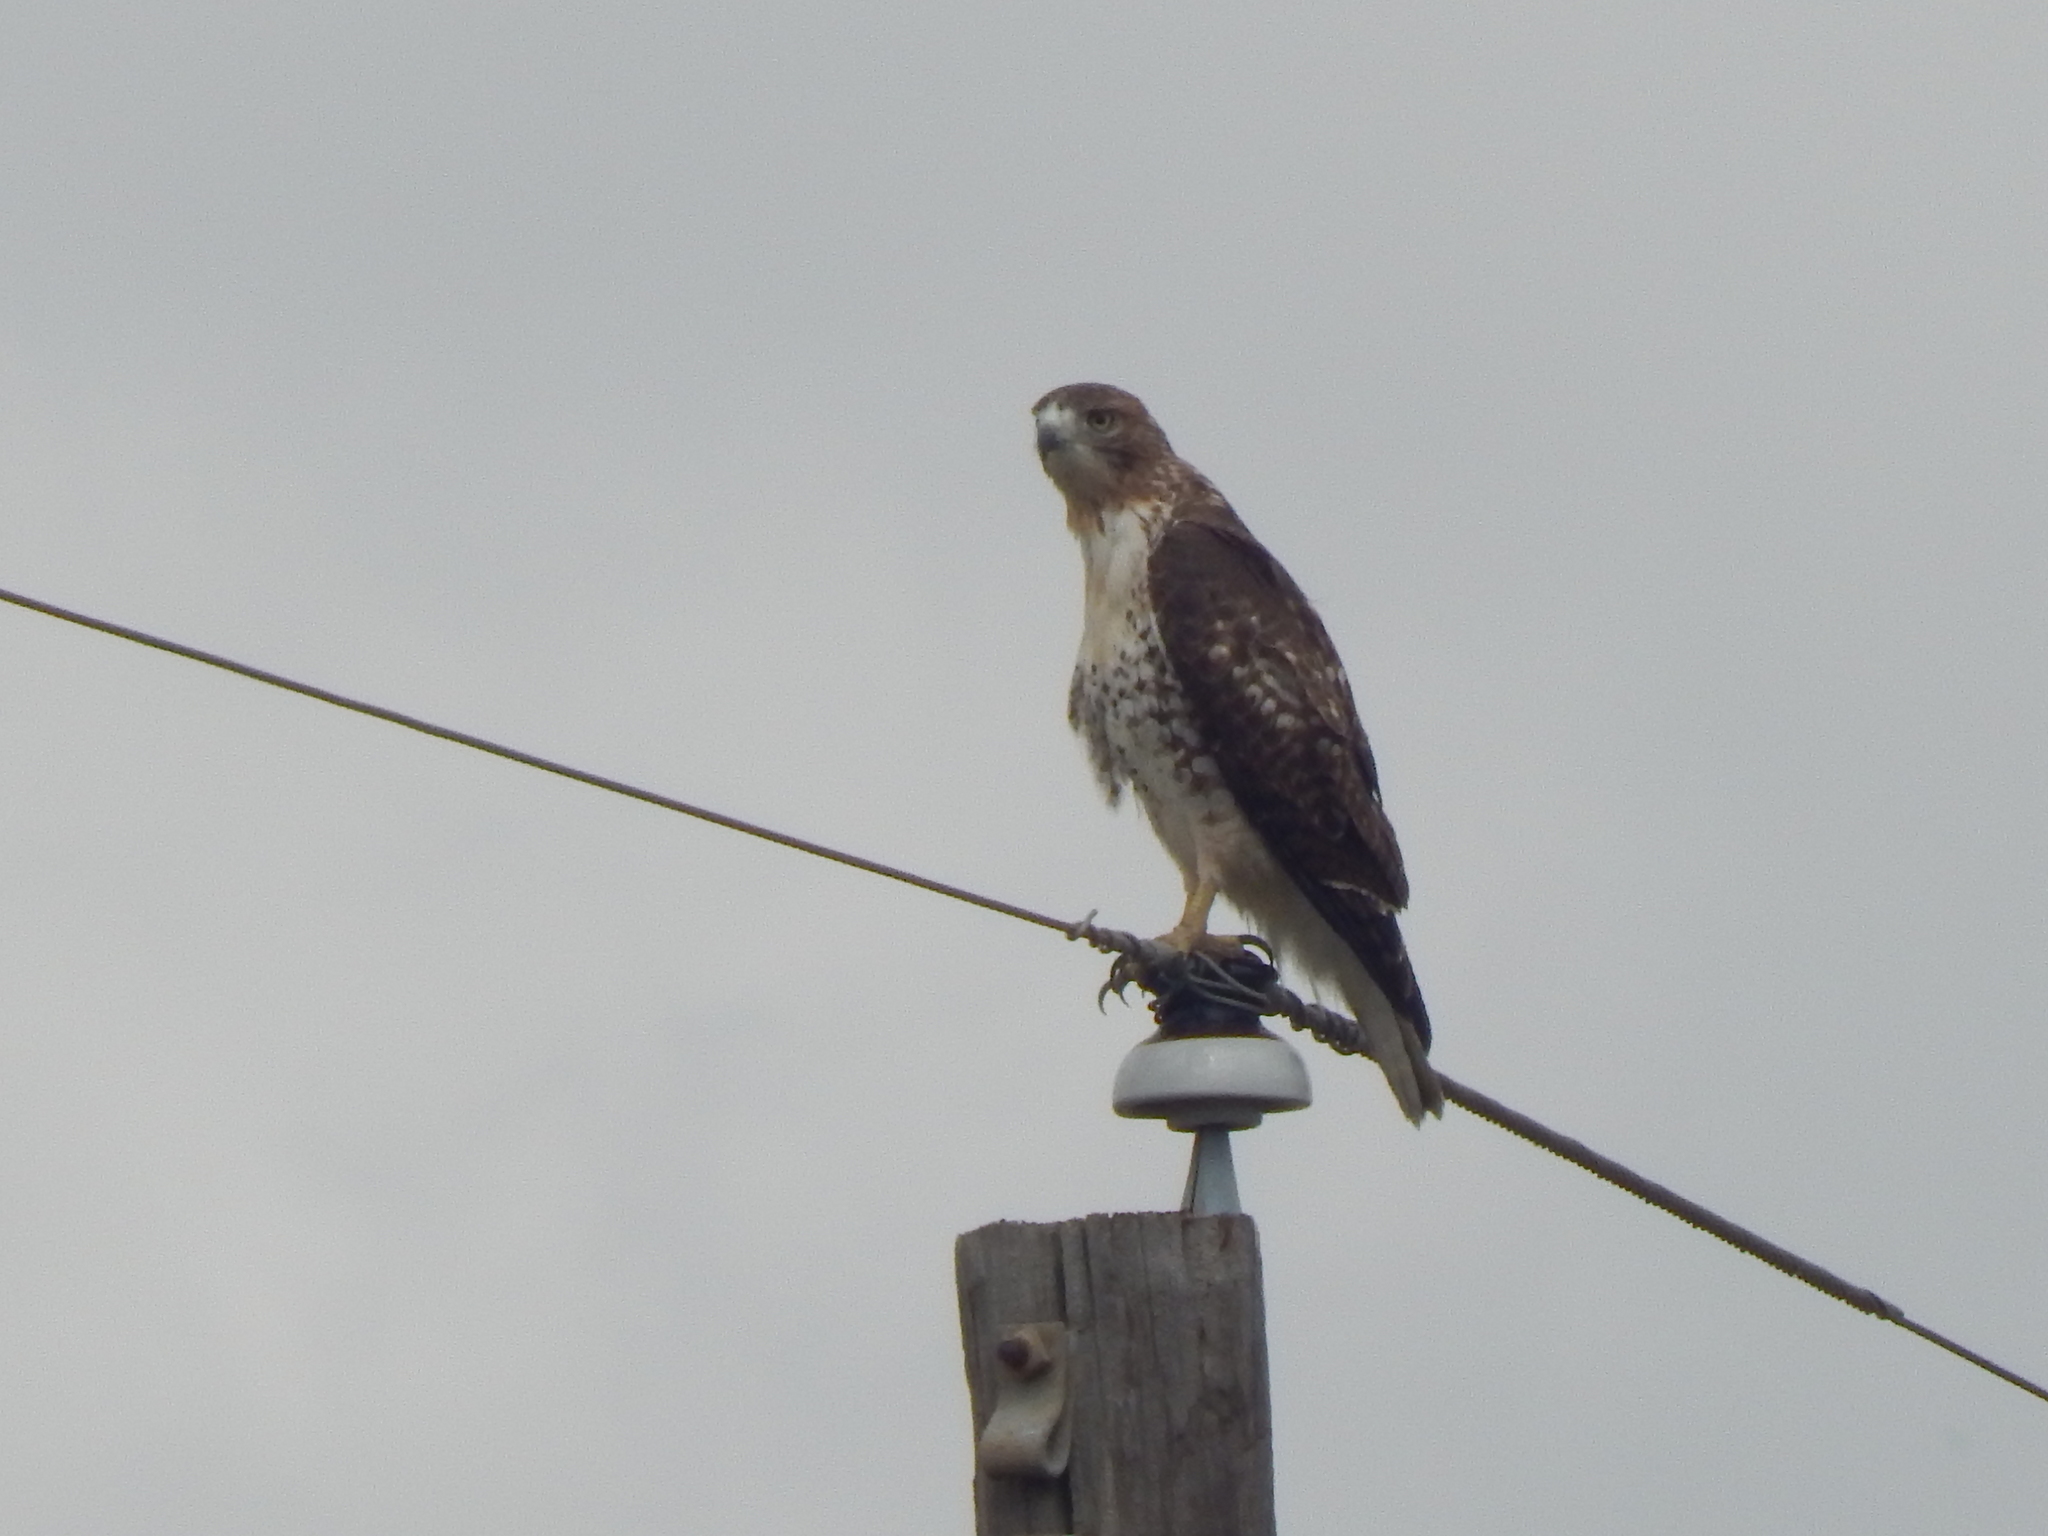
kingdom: Animalia
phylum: Chordata
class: Aves
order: Accipitriformes
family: Accipitridae
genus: Buteo
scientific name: Buteo jamaicensis
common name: Red-tailed hawk
